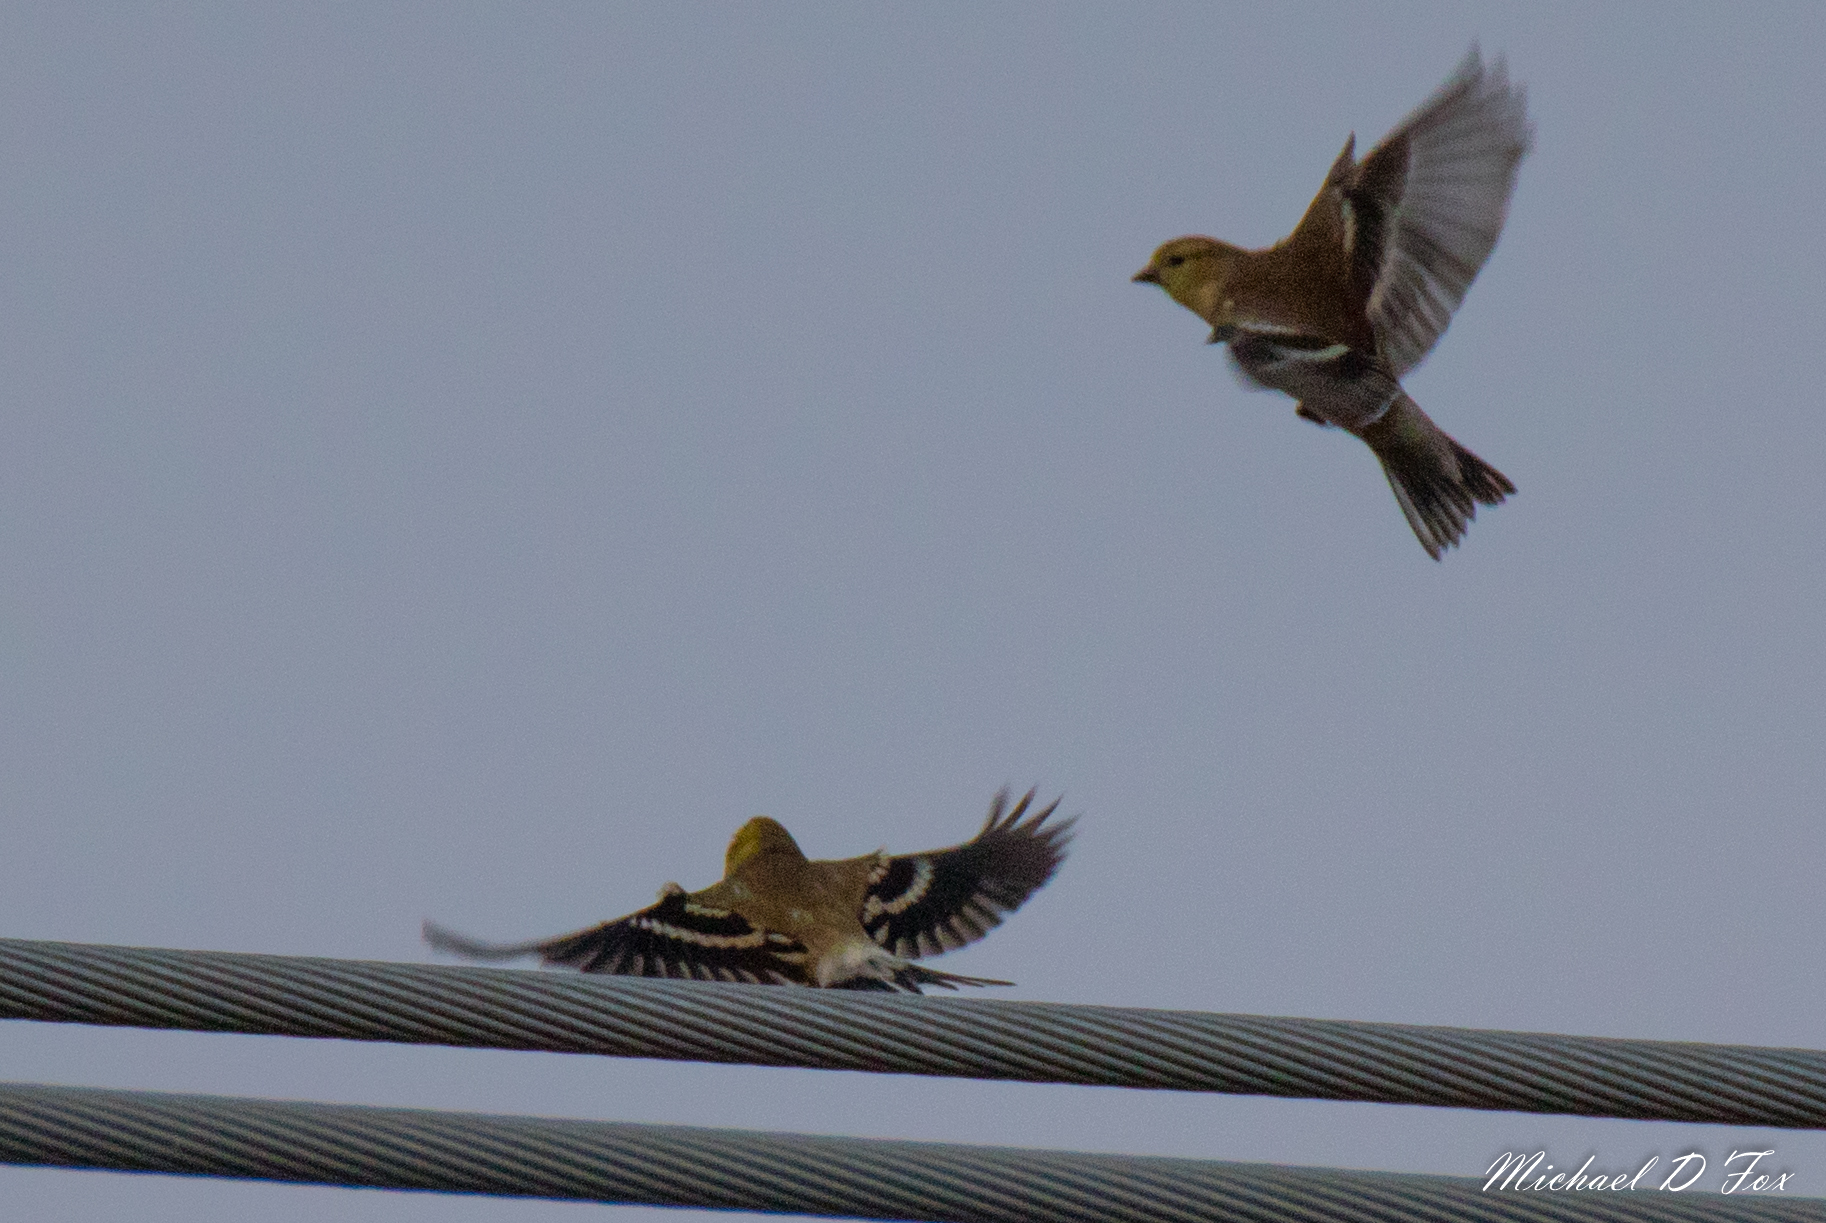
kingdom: Animalia
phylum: Chordata
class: Aves
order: Passeriformes
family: Fringillidae
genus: Spinus
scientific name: Spinus tristis
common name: American goldfinch
